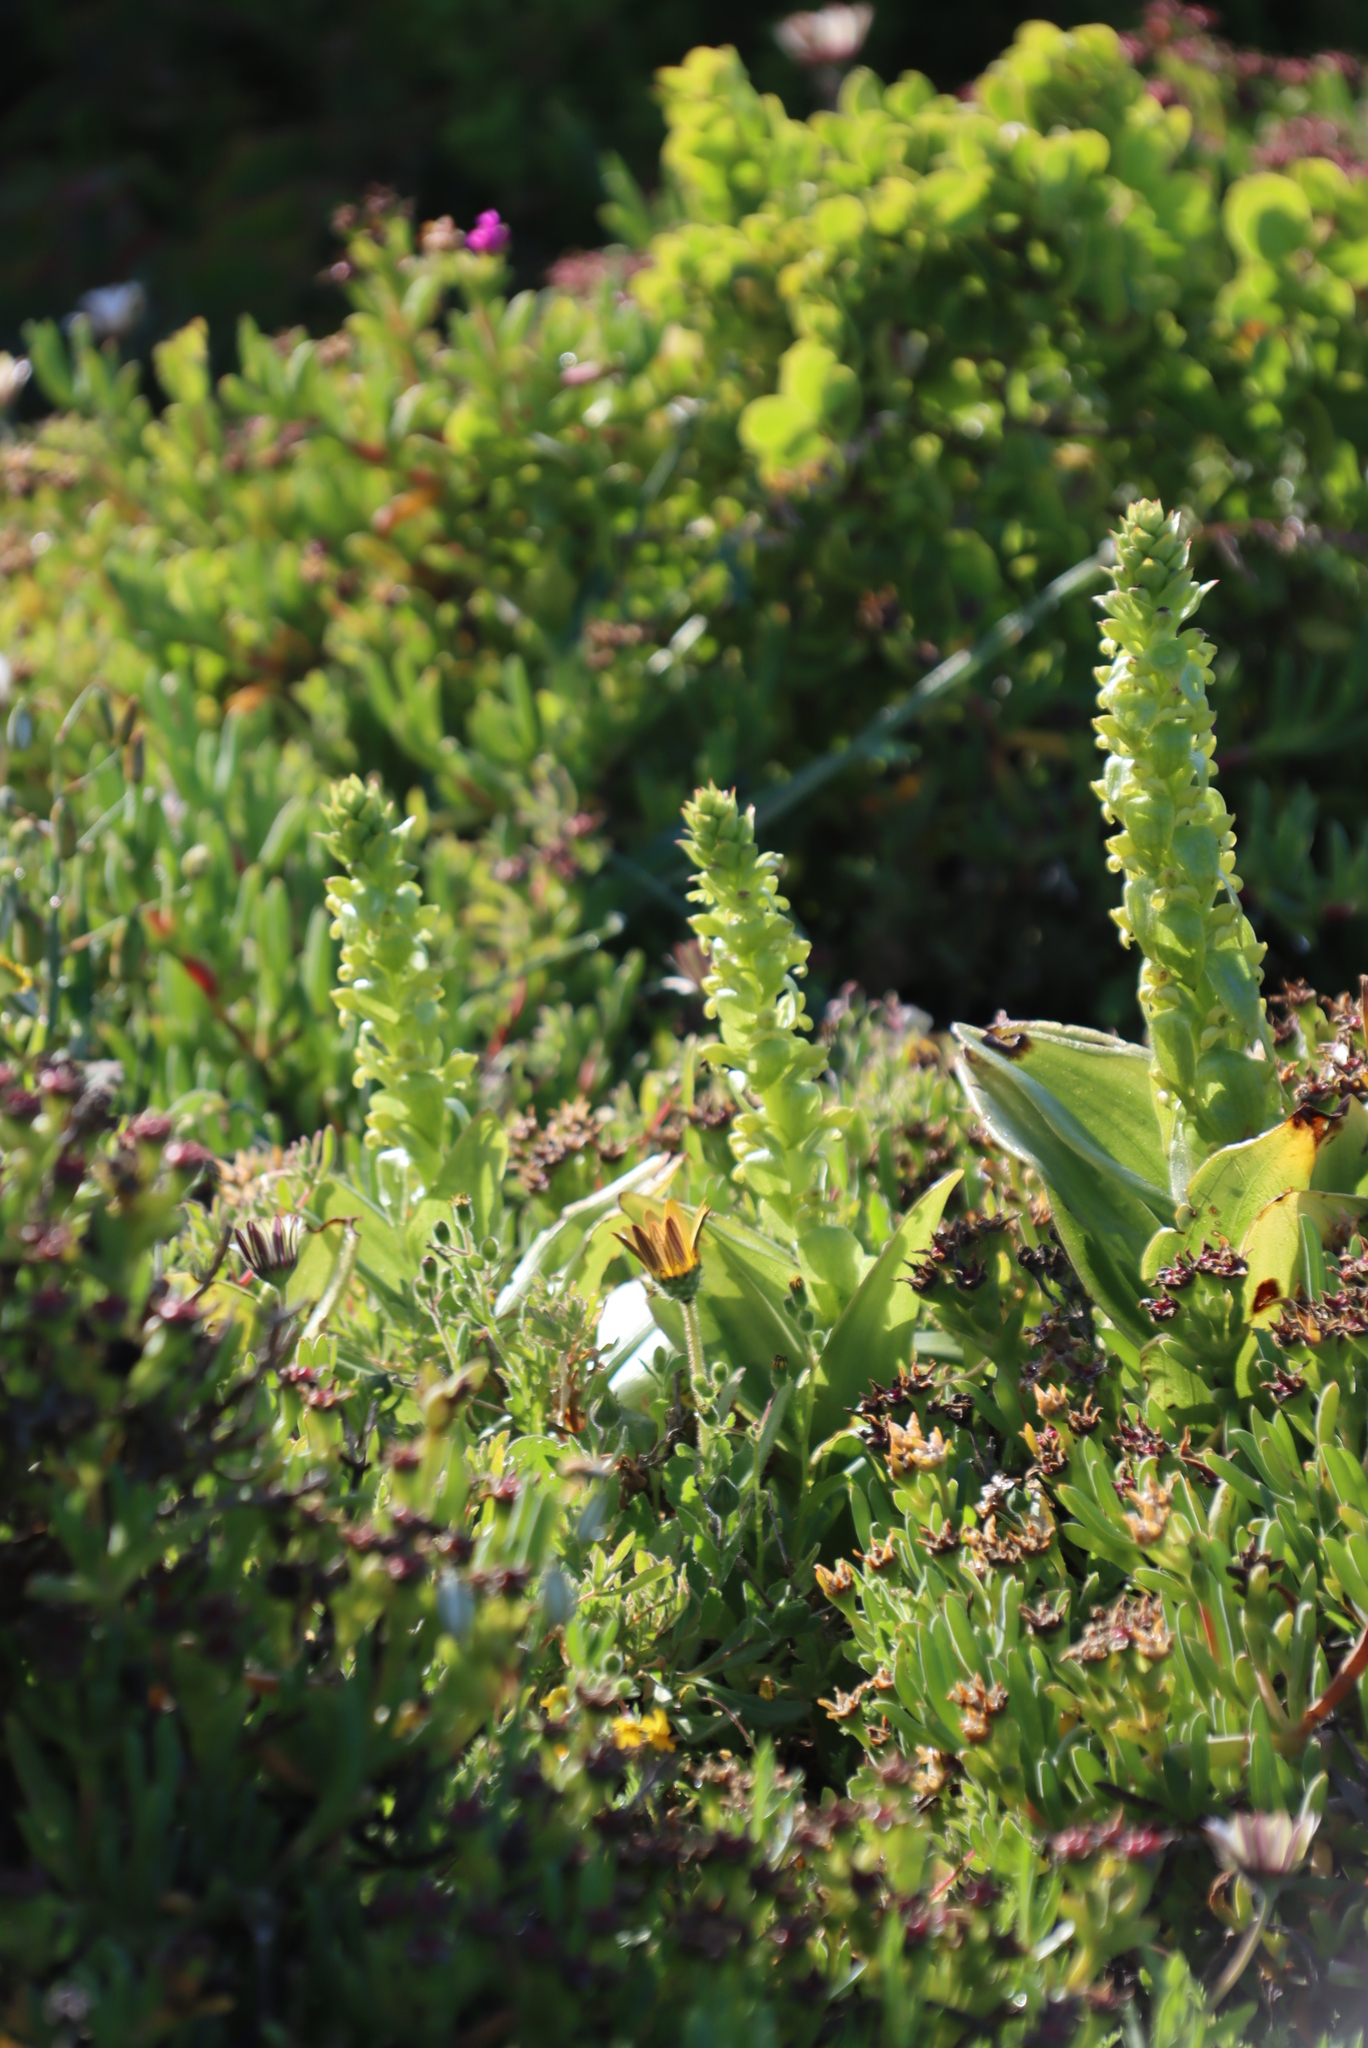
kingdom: Plantae
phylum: Tracheophyta
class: Liliopsida
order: Asparagales
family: Orchidaceae
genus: Satyrium
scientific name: Satyrium odorum
